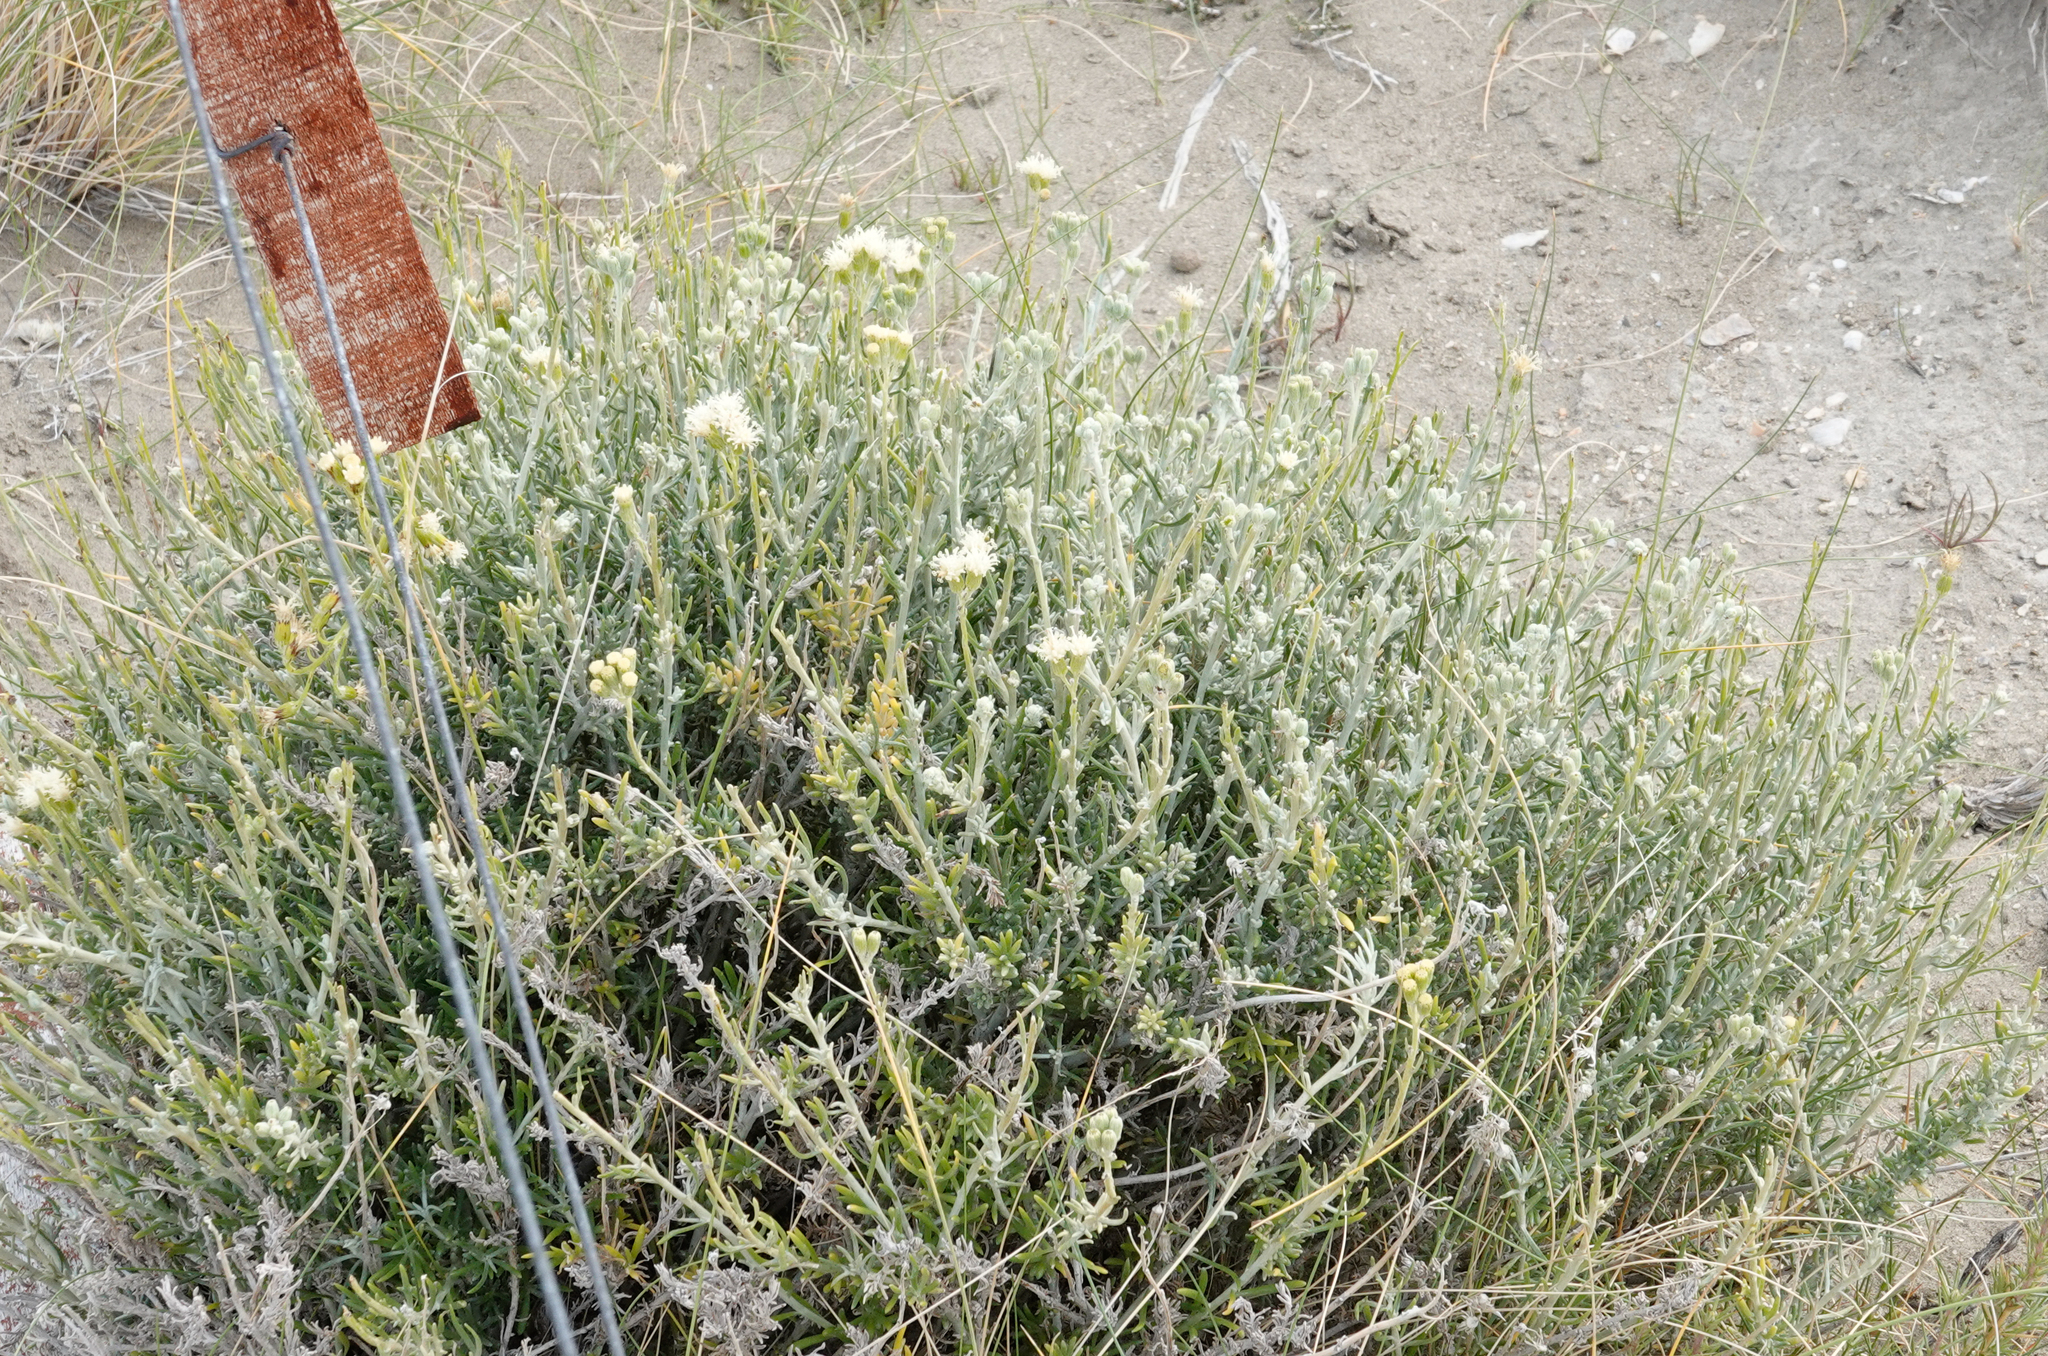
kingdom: Plantae
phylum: Tracheophyta
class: Magnoliopsida
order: Asterales
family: Asteraceae
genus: Senecio
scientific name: Senecio filaginoides
